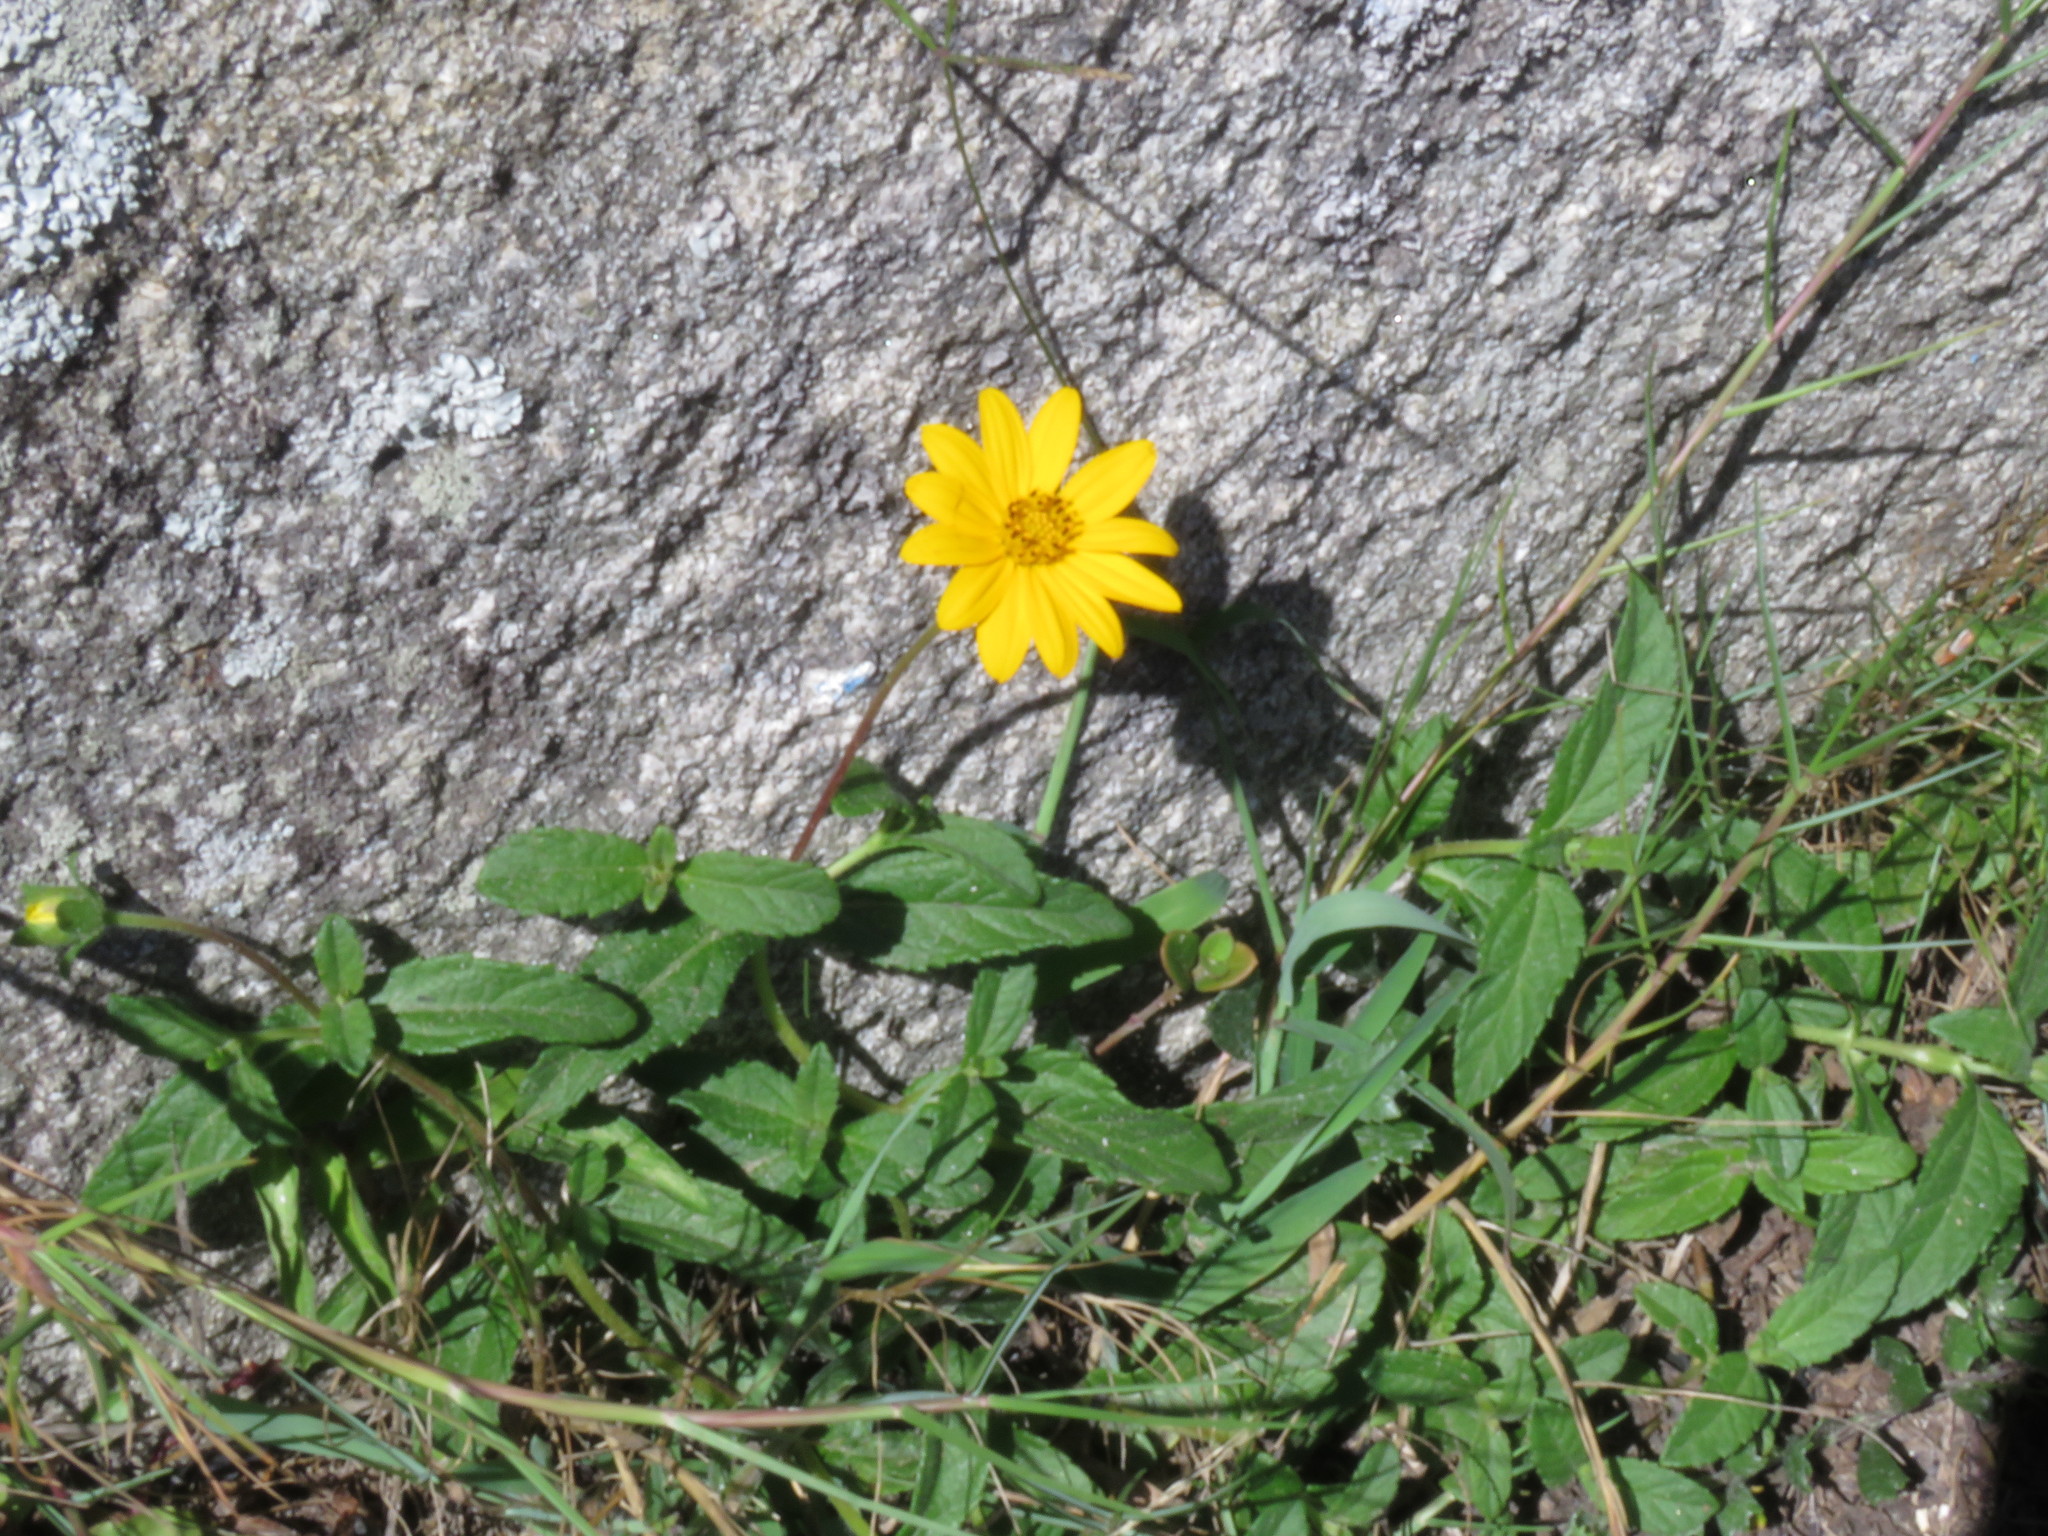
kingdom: Plantae
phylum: Tracheophyta
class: Magnoliopsida
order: Asterales
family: Asteraceae
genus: Wedelia
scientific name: Wedelia montevidensis
